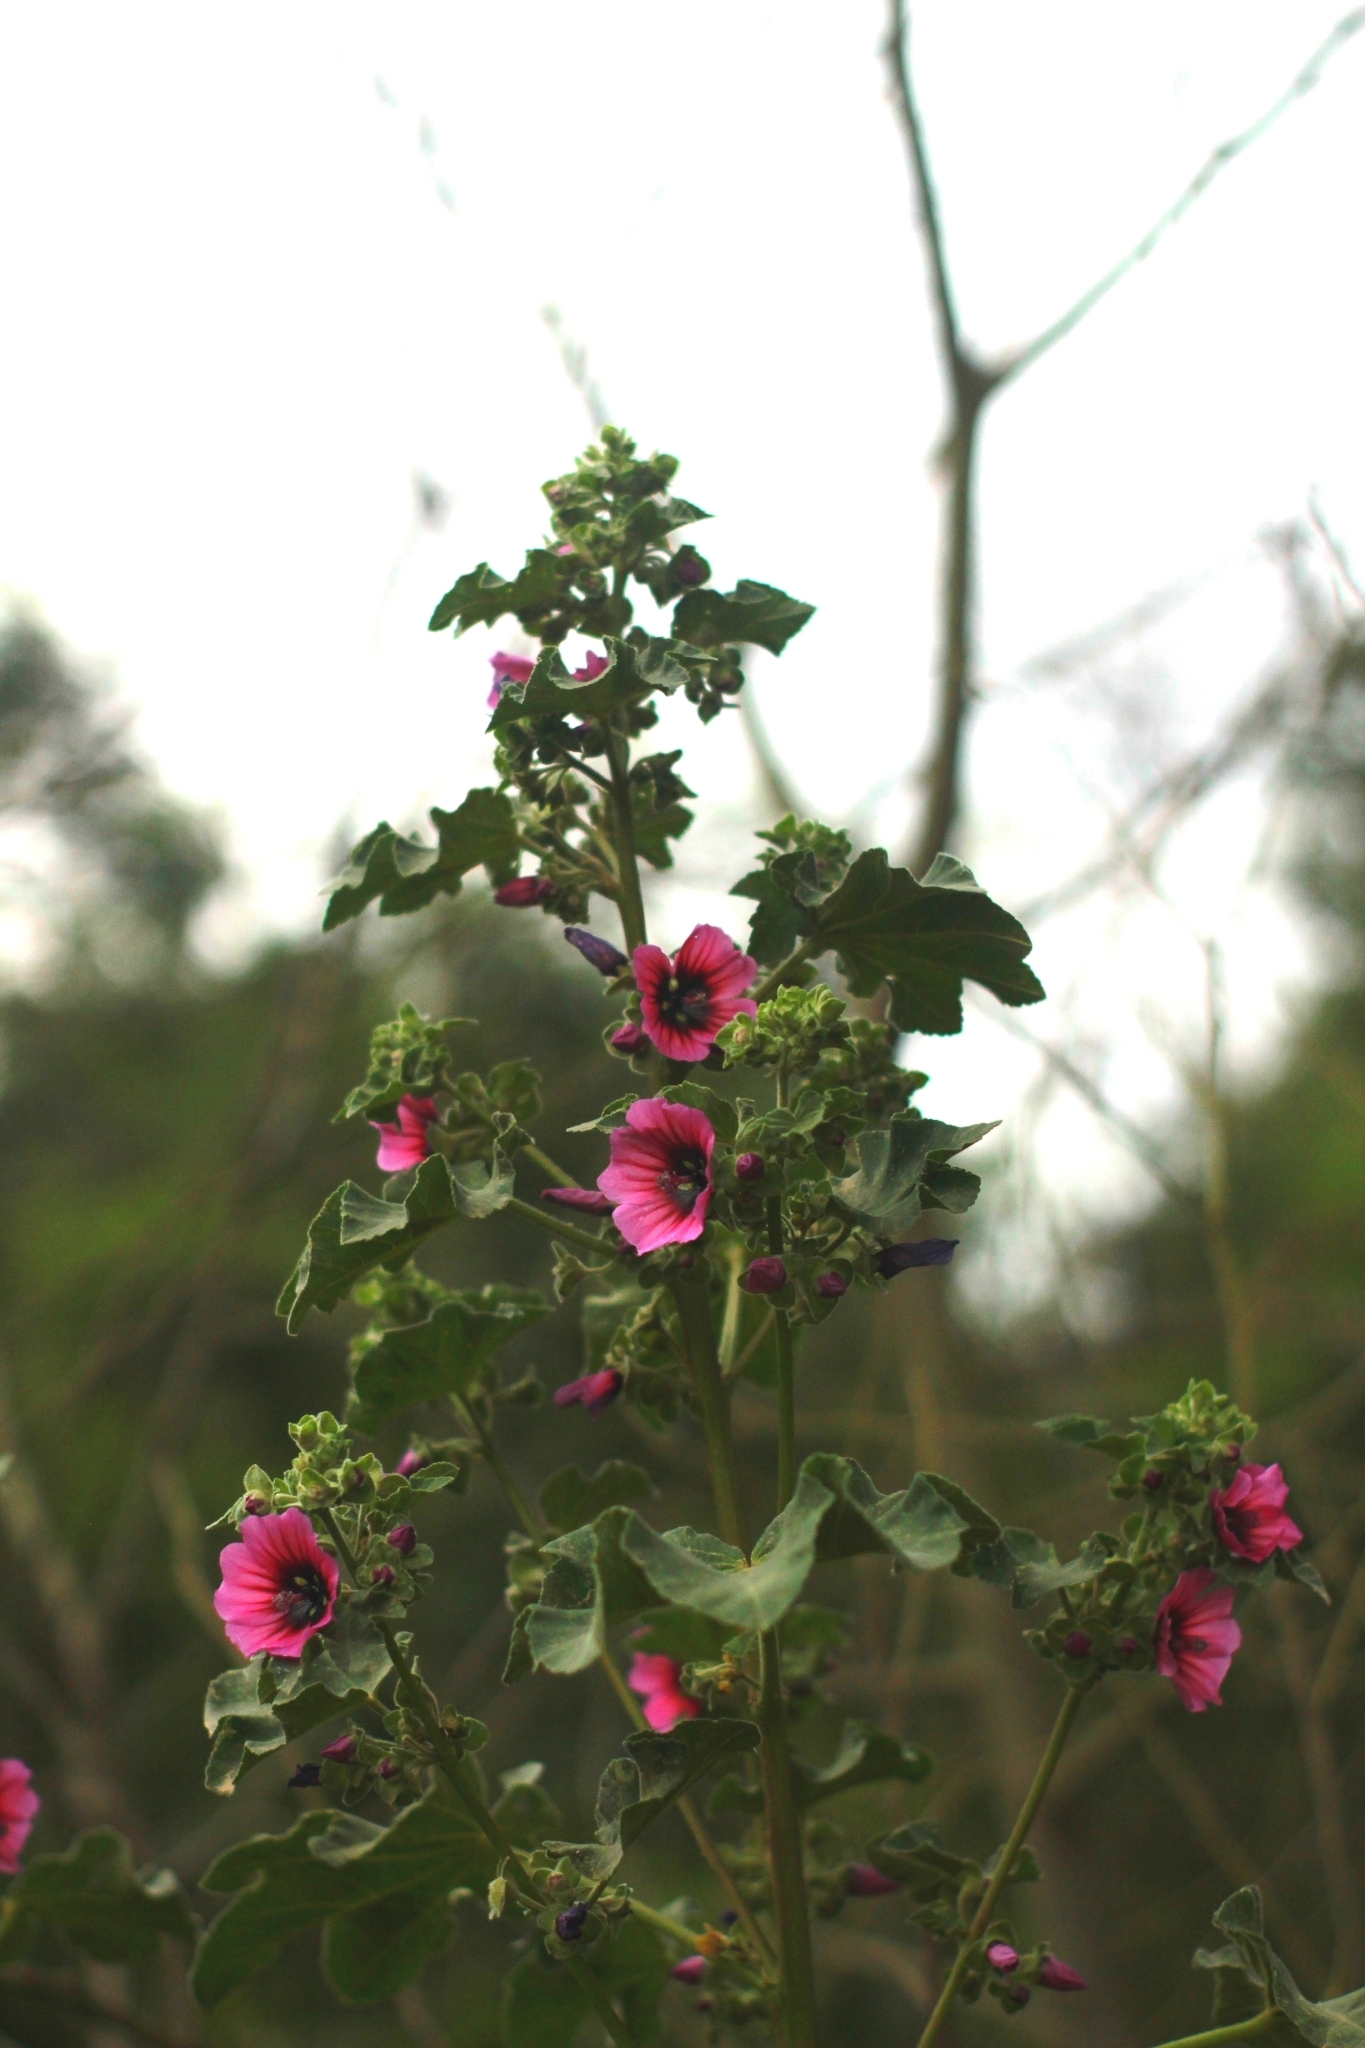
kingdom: Plantae
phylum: Tracheophyta
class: Magnoliopsida
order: Malvales
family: Malvaceae
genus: Malva
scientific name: Malva arborea
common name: Tree mallow
